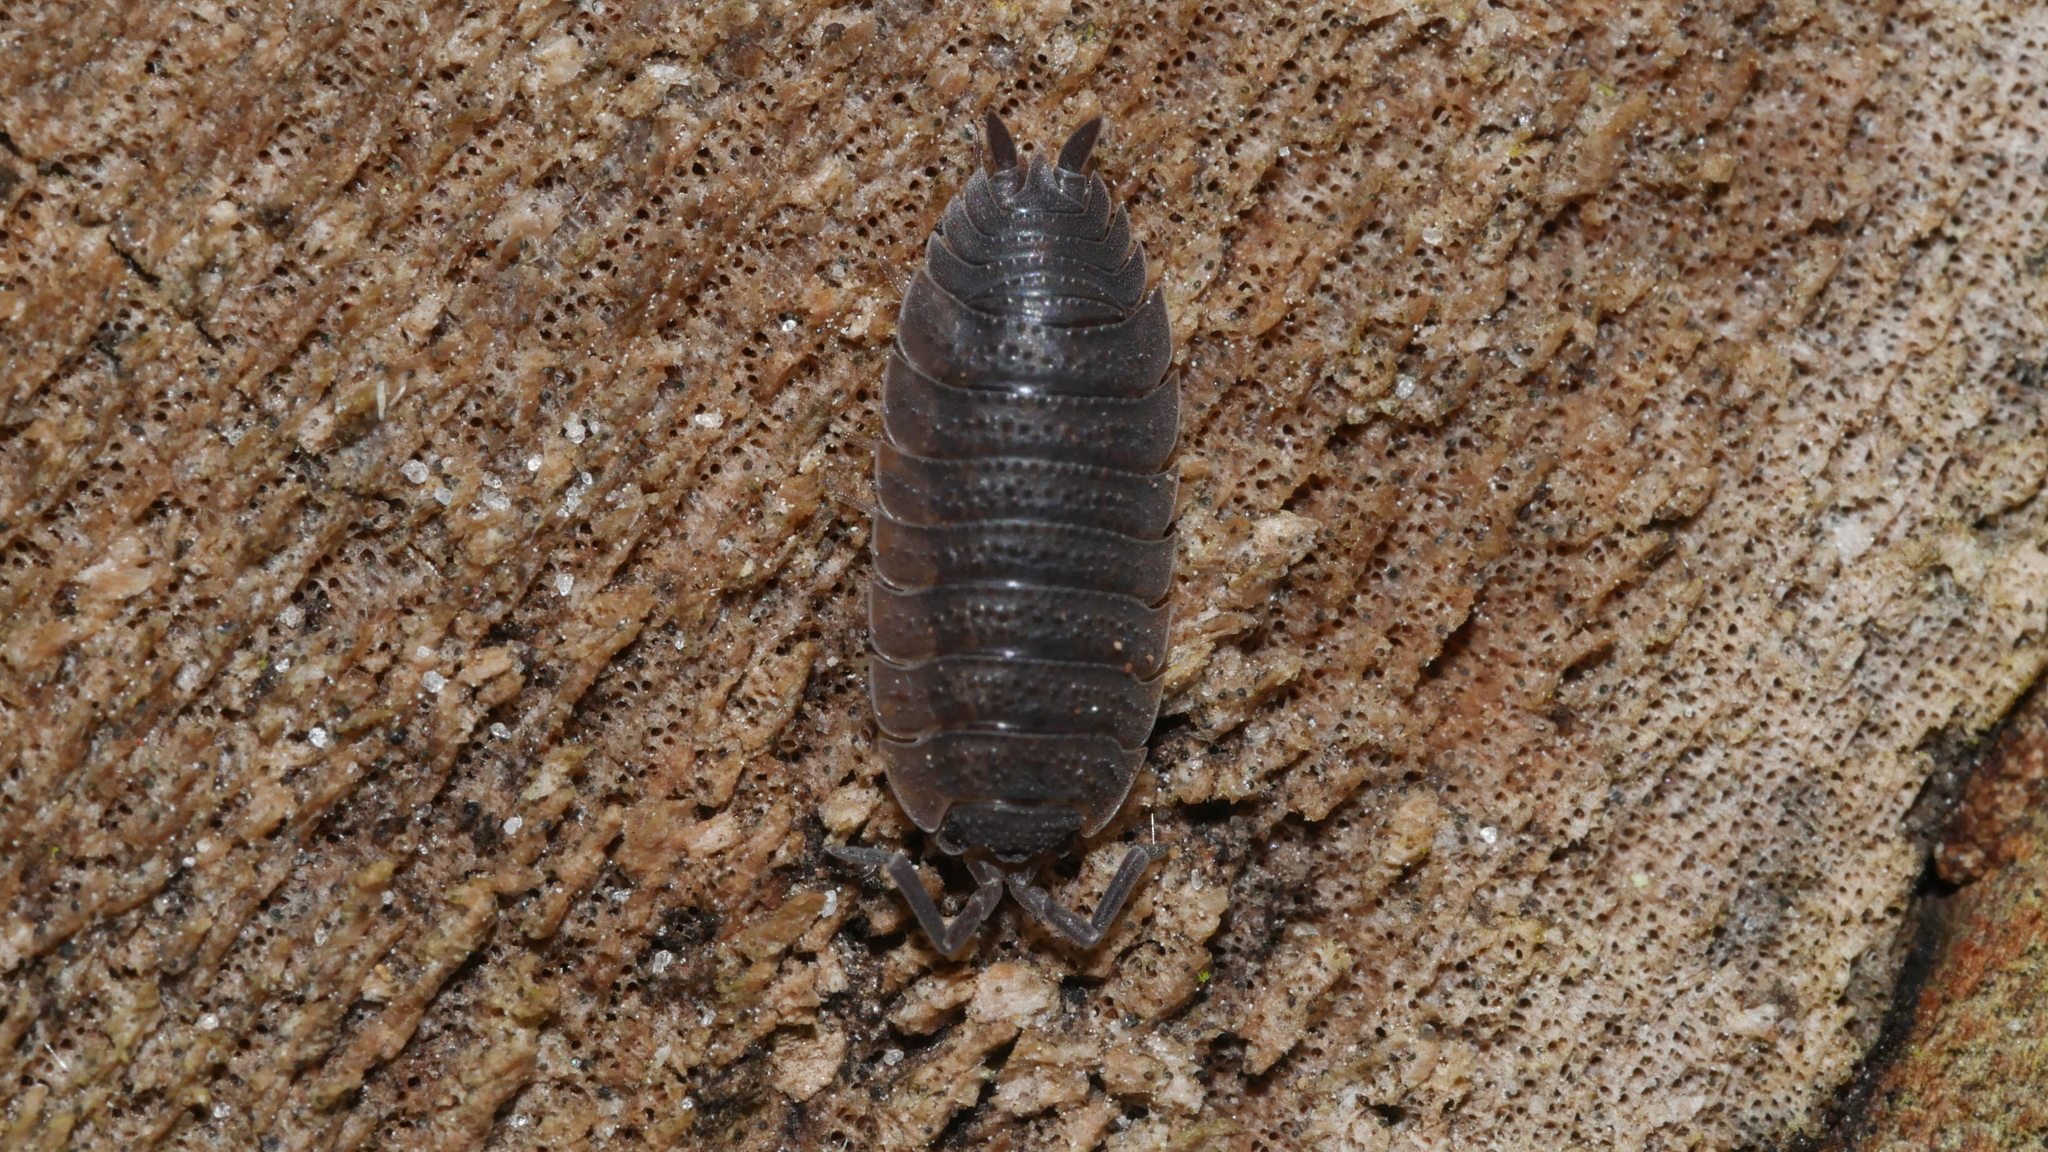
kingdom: Animalia
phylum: Arthropoda
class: Malacostraca
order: Isopoda
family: Porcellionidae
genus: Porcellio
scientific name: Porcellio scaber
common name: Common rough woodlouse
